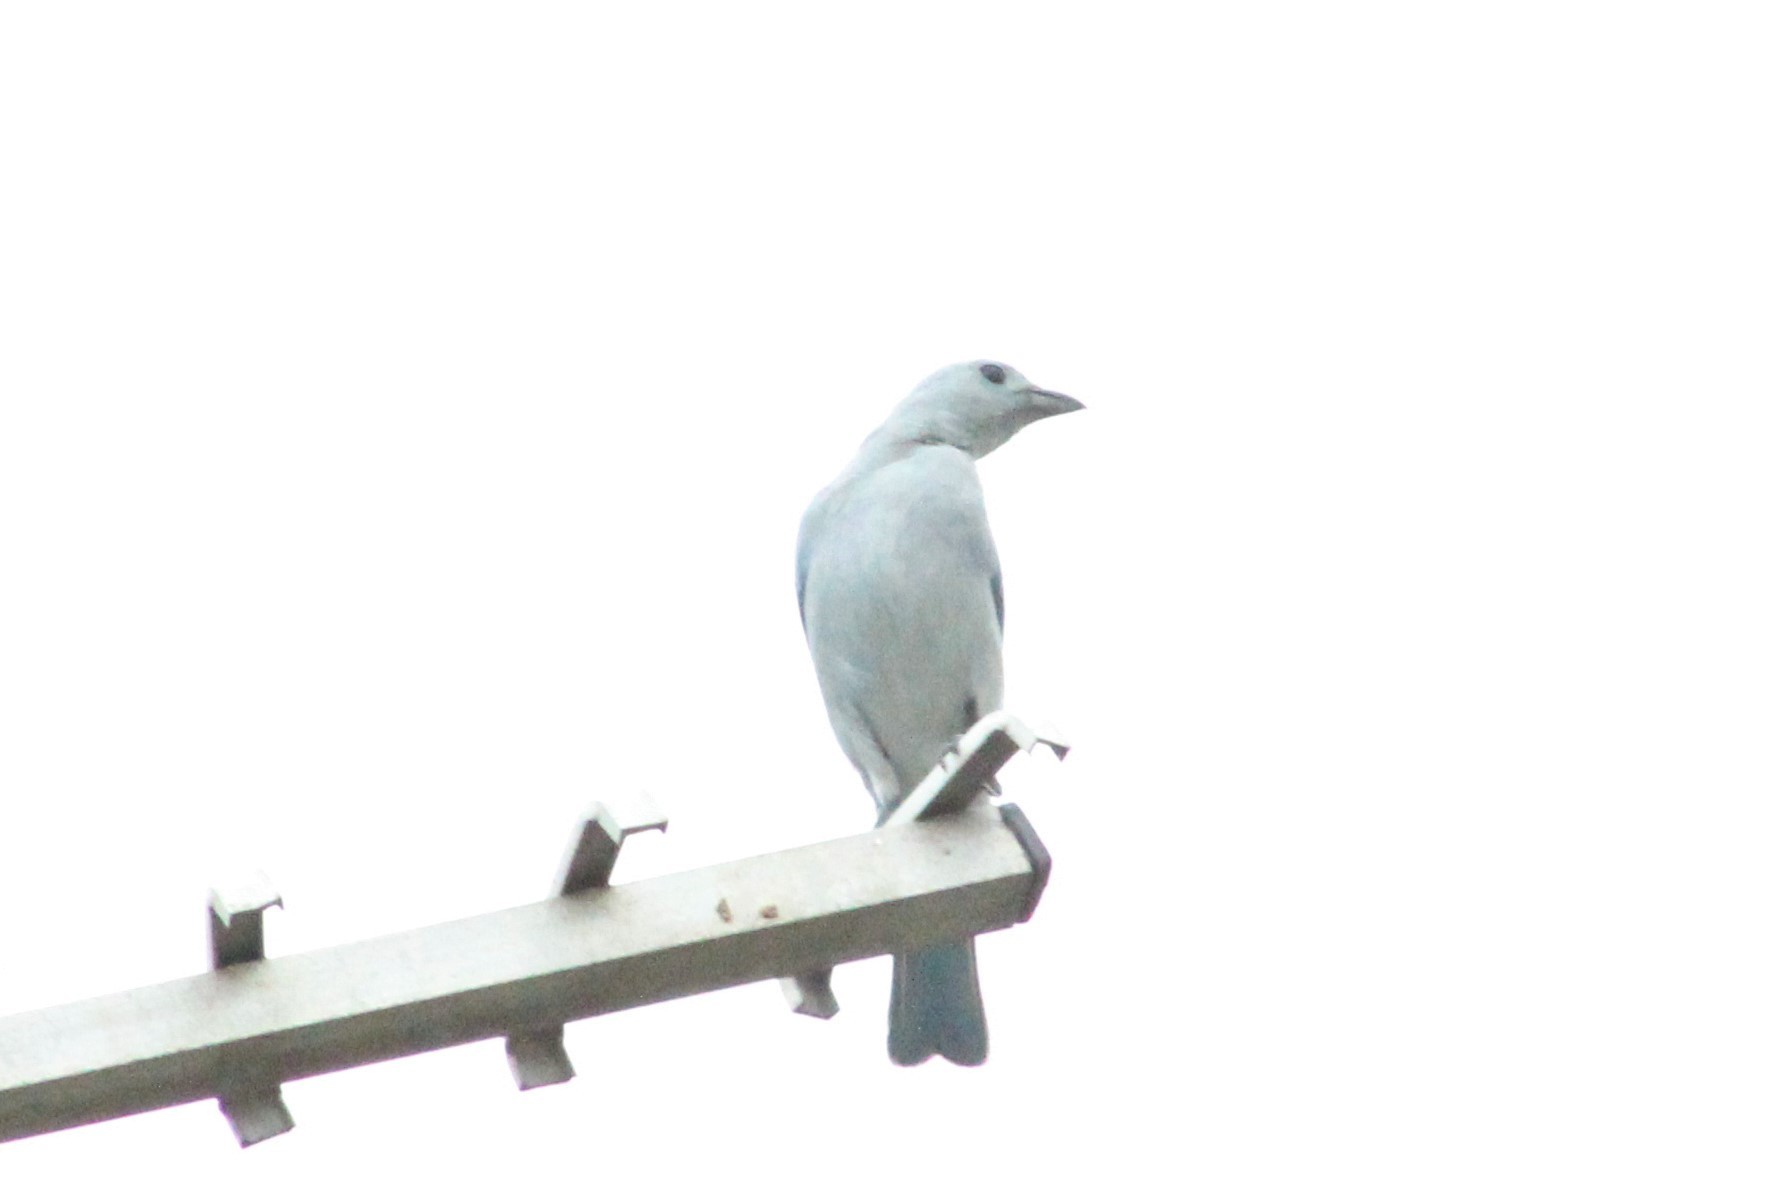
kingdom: Animalia
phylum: Chordata
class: Aves
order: Passeriformes
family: Thraupidae
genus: Thraupis
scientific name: Thraupis episcopus
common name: Blue-grey tanager
